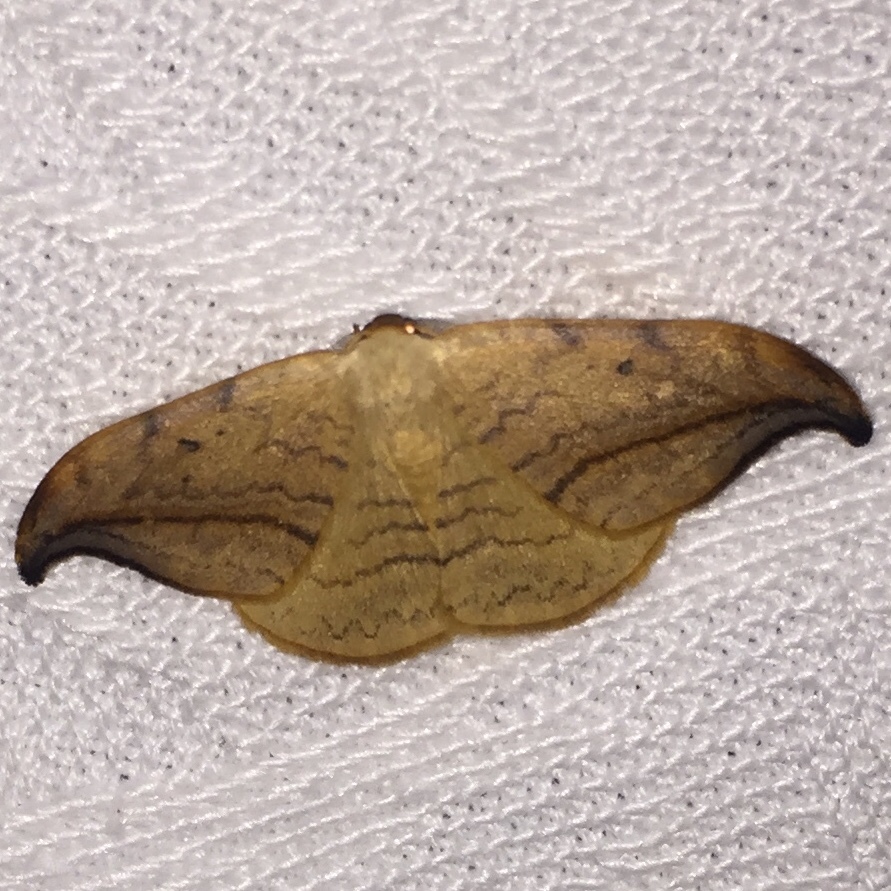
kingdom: Animalia
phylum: Arthropoda
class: Insecta
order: Lepidoptera
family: Drepanidae
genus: Drepana
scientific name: Drepana arcuata
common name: Arched hooktip moth
